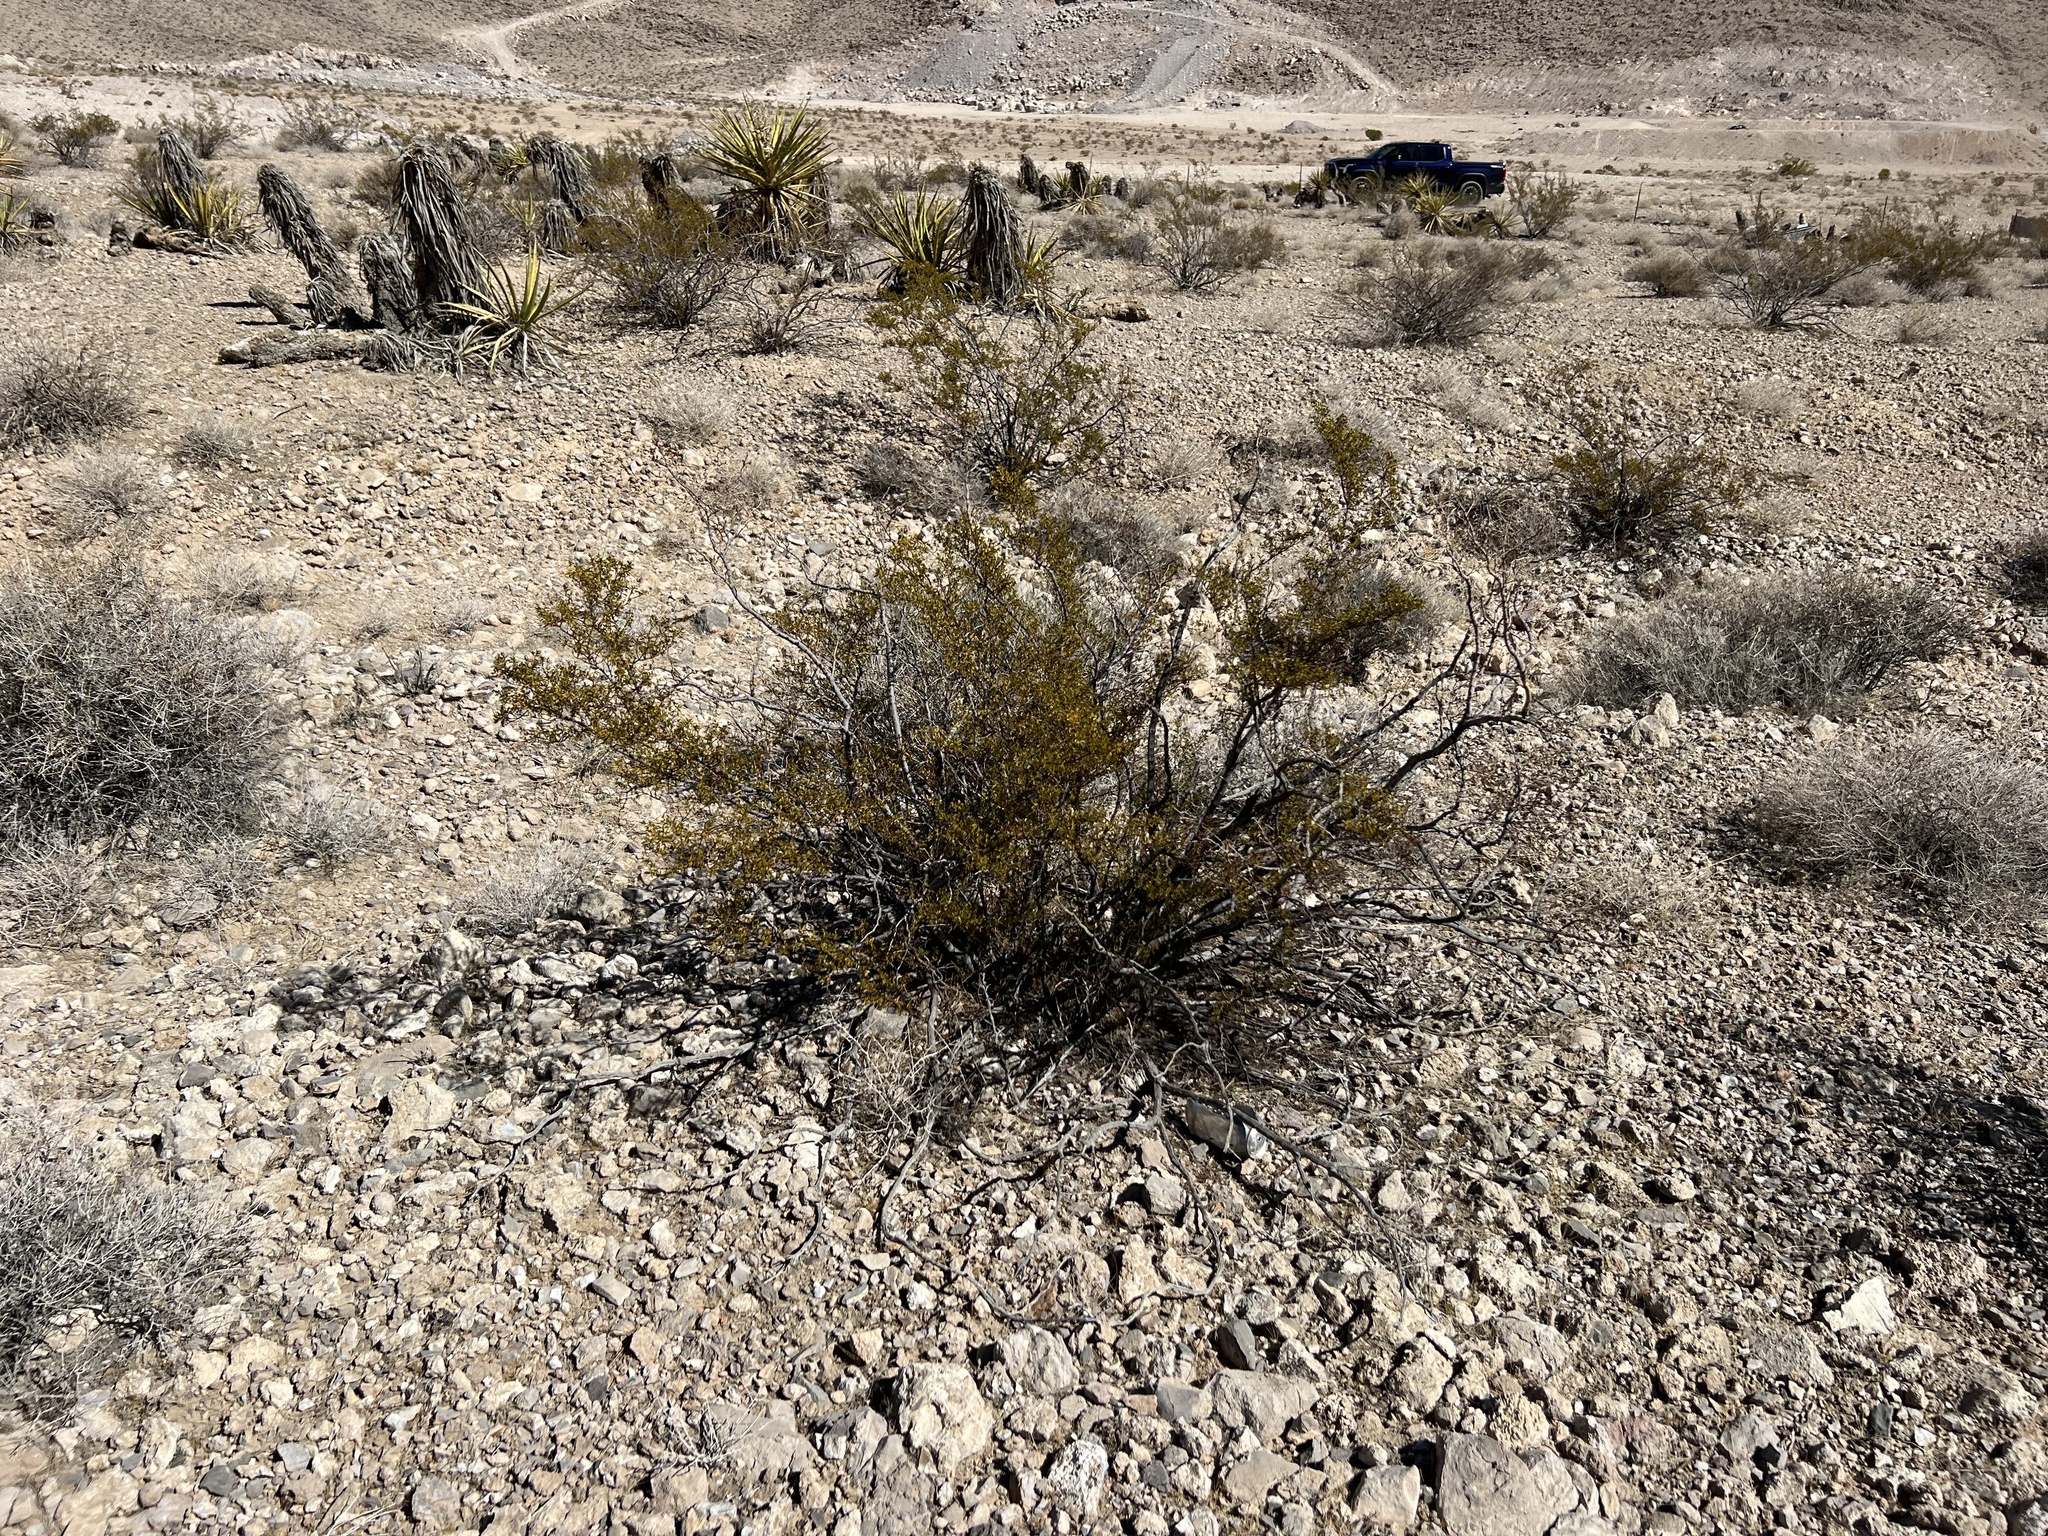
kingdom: Plantae
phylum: Tracheophyta
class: Magnoliopsida
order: Zygophyllales
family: Zygophyllaceae
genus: Larrea
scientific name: Larrea tridentata
